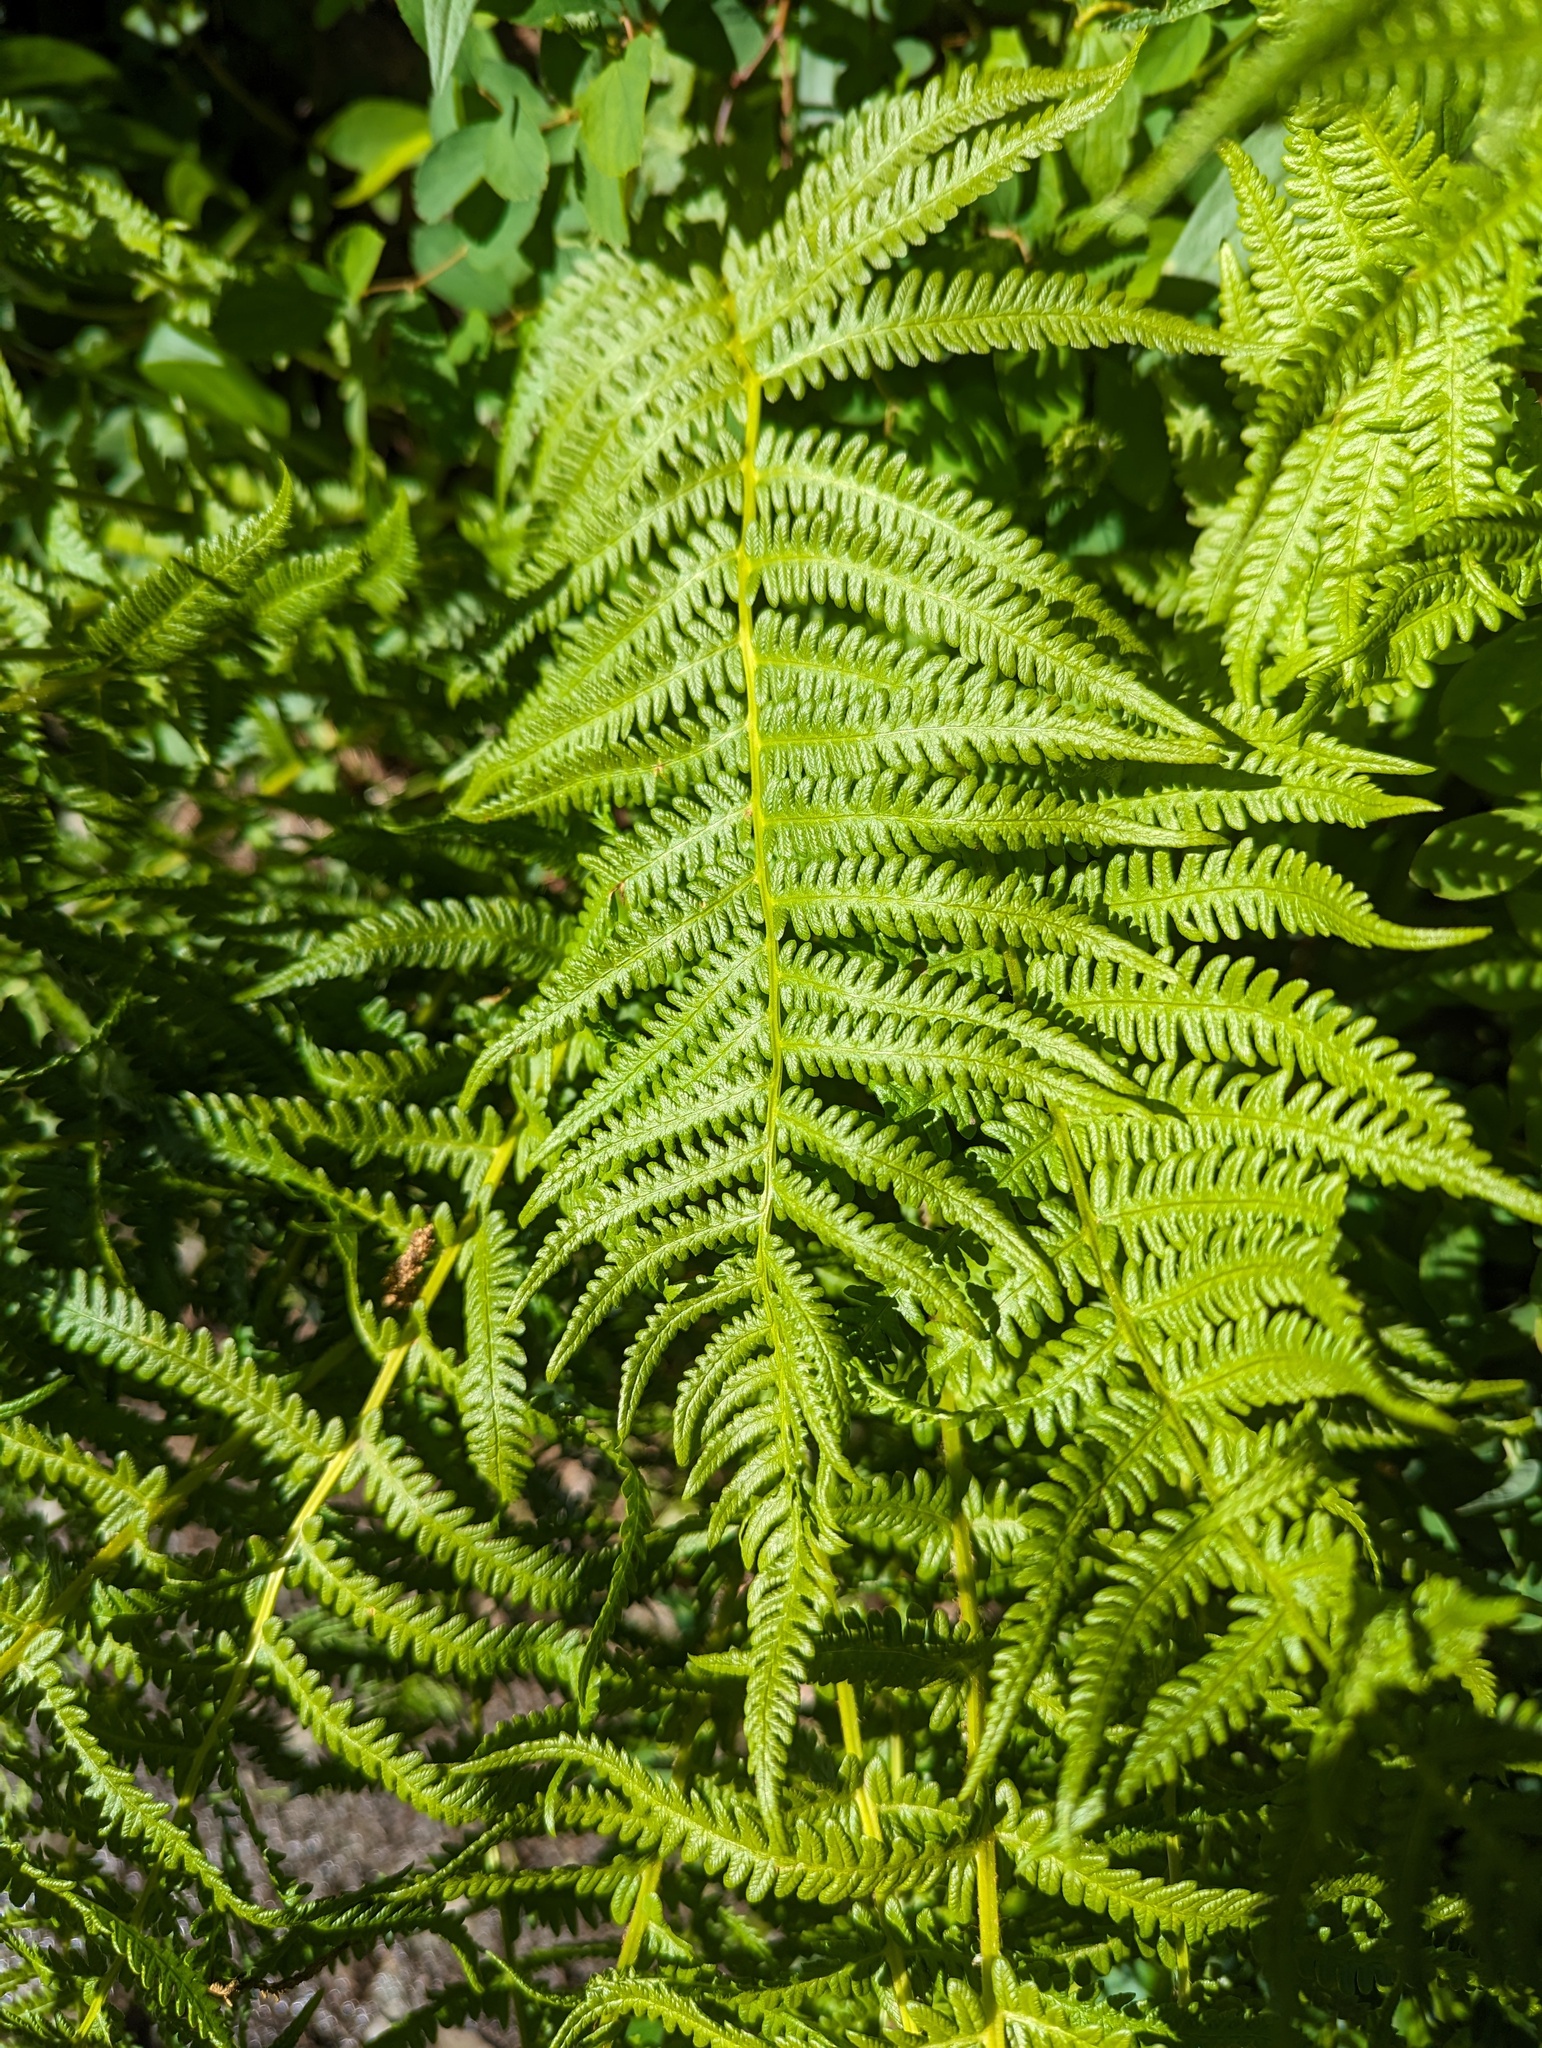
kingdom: Plantae
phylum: Tracheophyta
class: Polypodiopsida
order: Polypodiales
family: Thelypteridaceae
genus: Oreopteris
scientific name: Oreopteris quelpartensis
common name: Mountain fern
